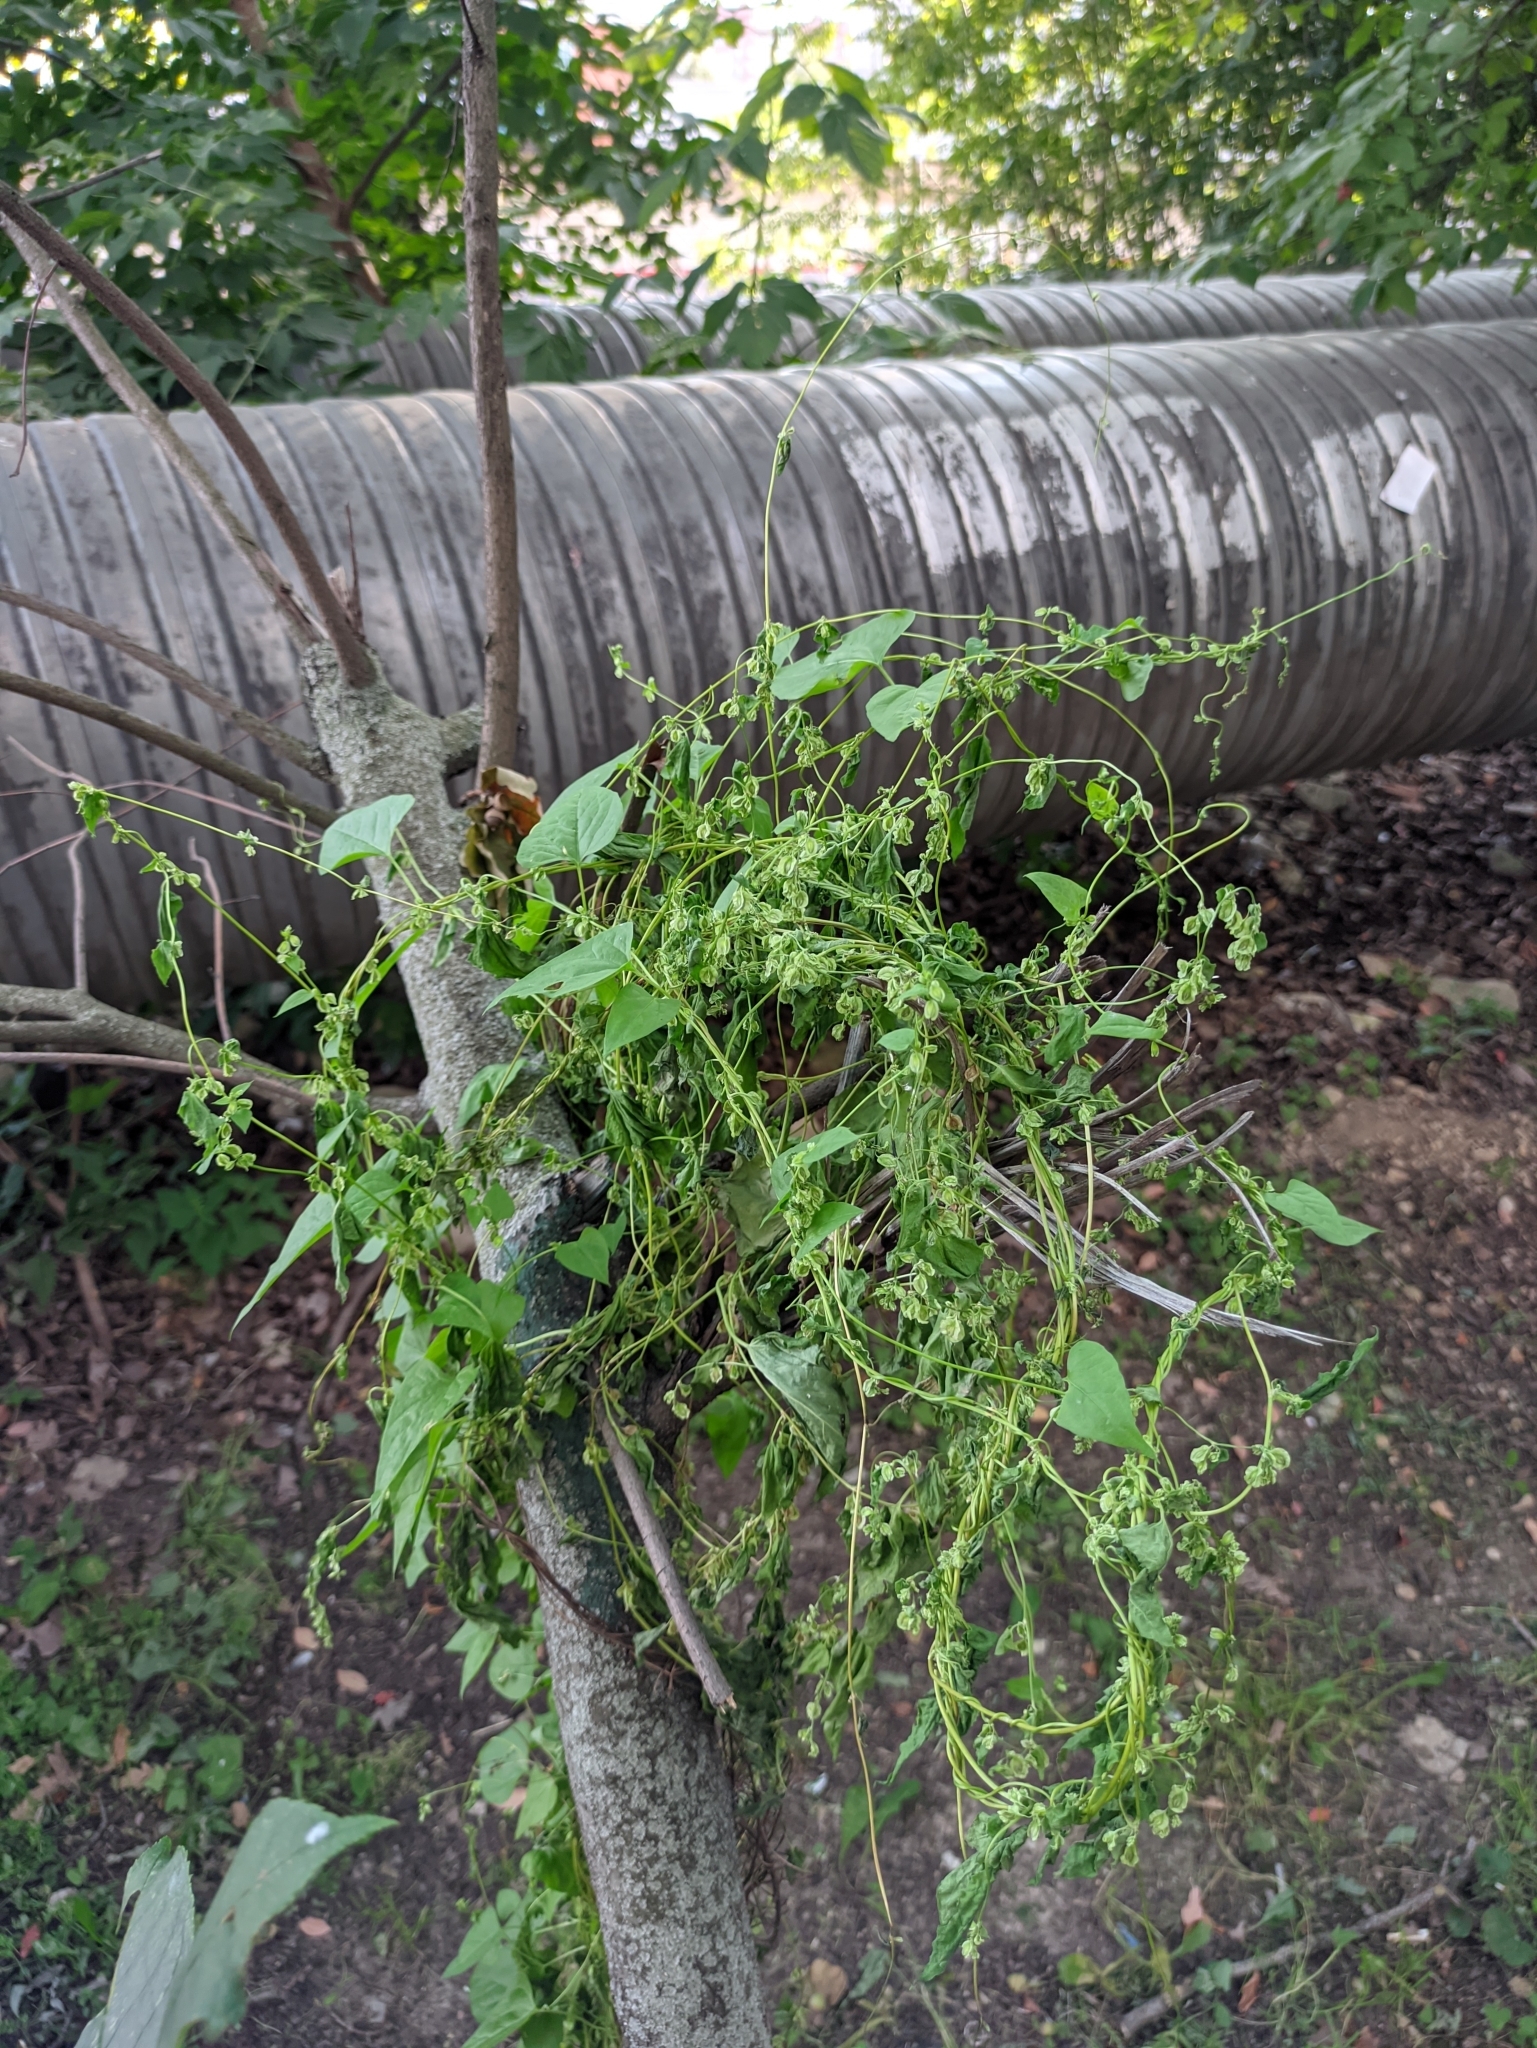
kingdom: Plantae
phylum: Tracheophyta
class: Magnoliopsida
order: Caryophyllales
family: Polygonaceae
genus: Fallopia
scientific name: Fallopia dumetorum
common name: Copse-bindweed
